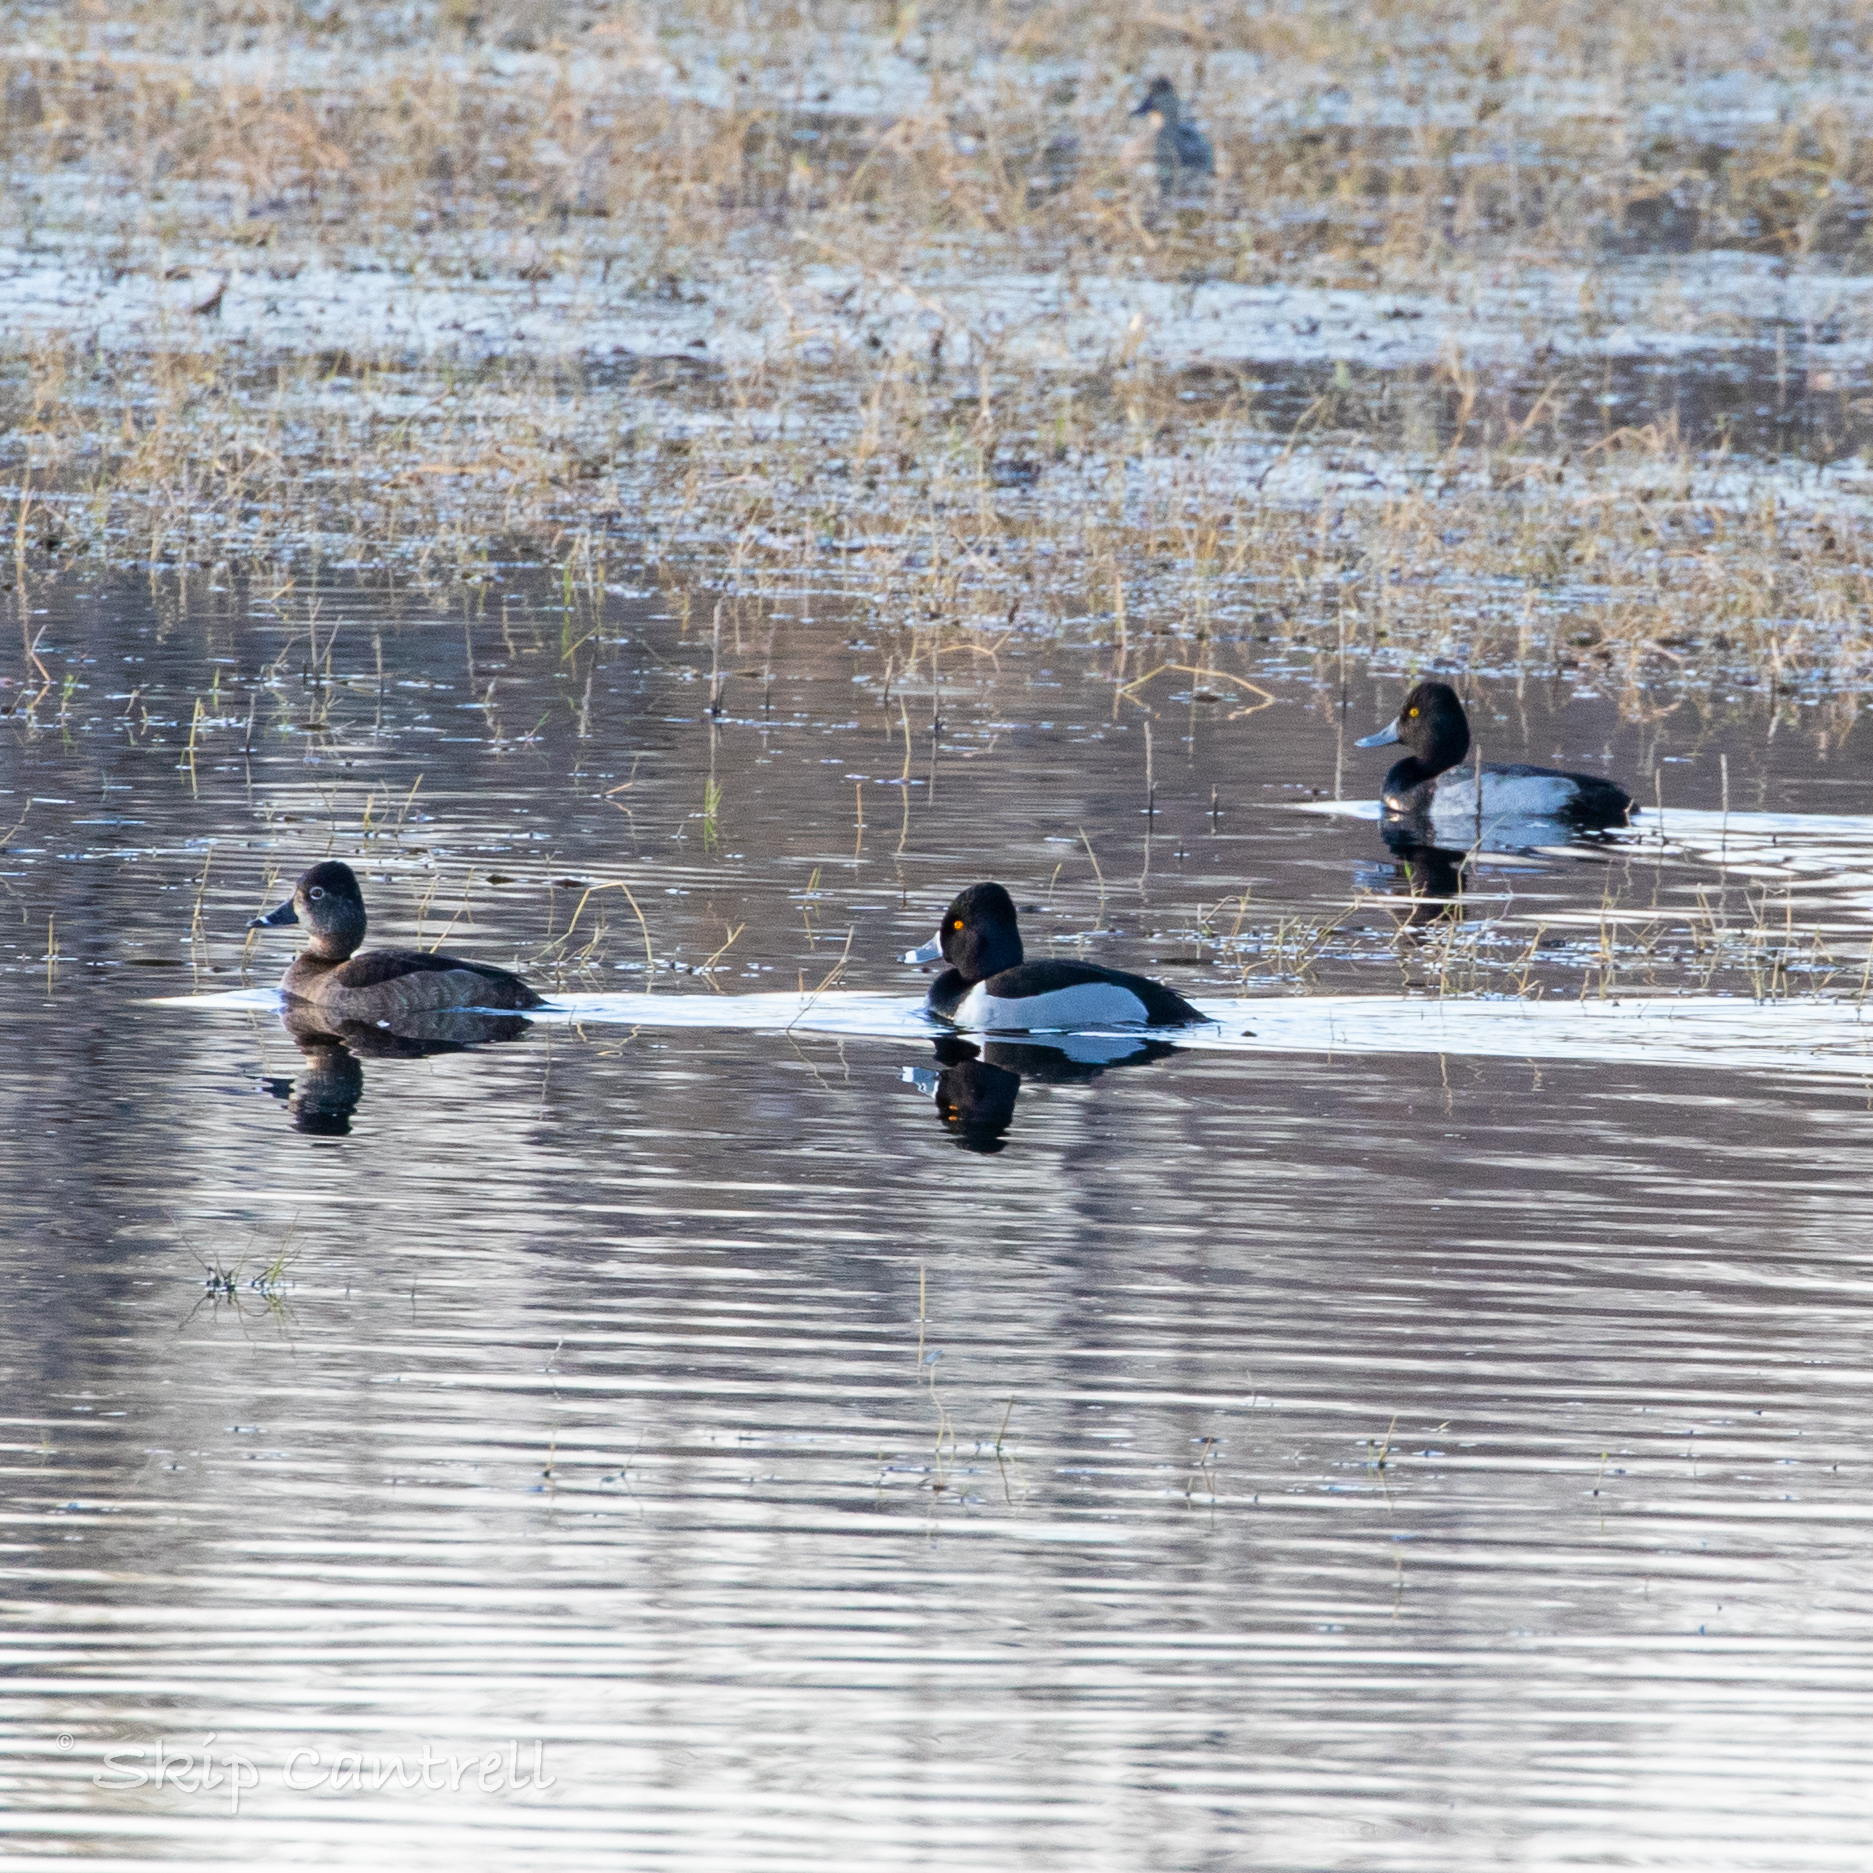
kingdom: Animalia
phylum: Chordata
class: Aves
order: Anseriformes
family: Anatidae
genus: Aythya
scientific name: Aythya collaris
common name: Ring-necked duck
